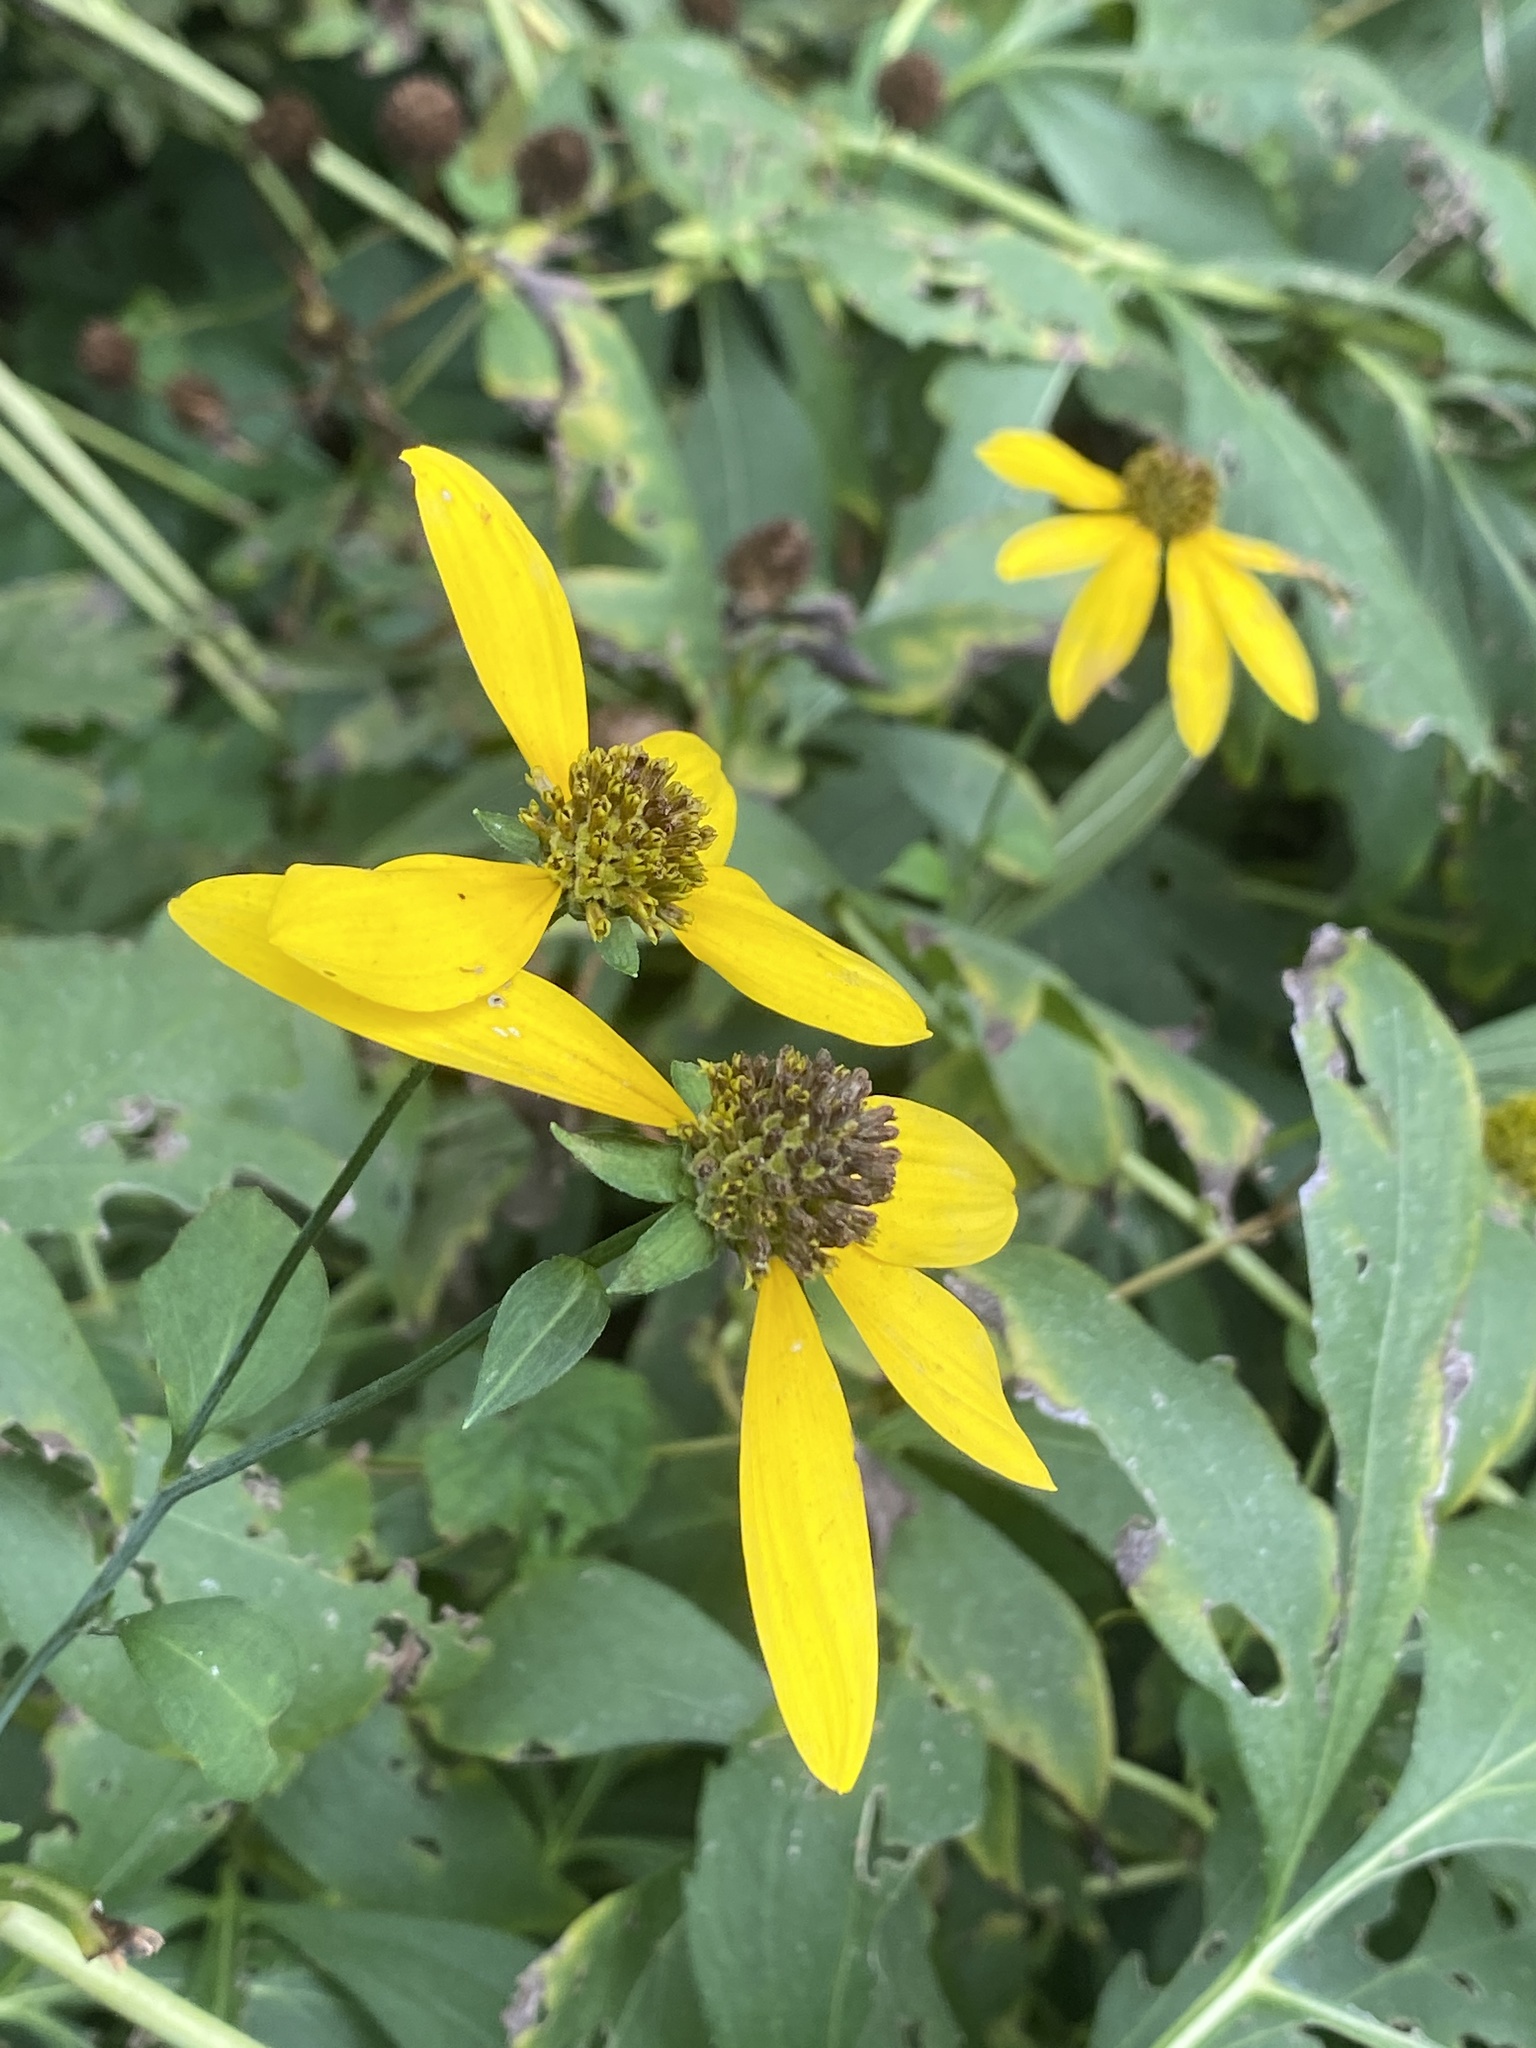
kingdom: Plantae
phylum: Tracheophyta
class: Magnoliopsida
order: Asterales
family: Asteraceae
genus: Rudbeckia
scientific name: Rudbeckia laciniata
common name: Coneflower
